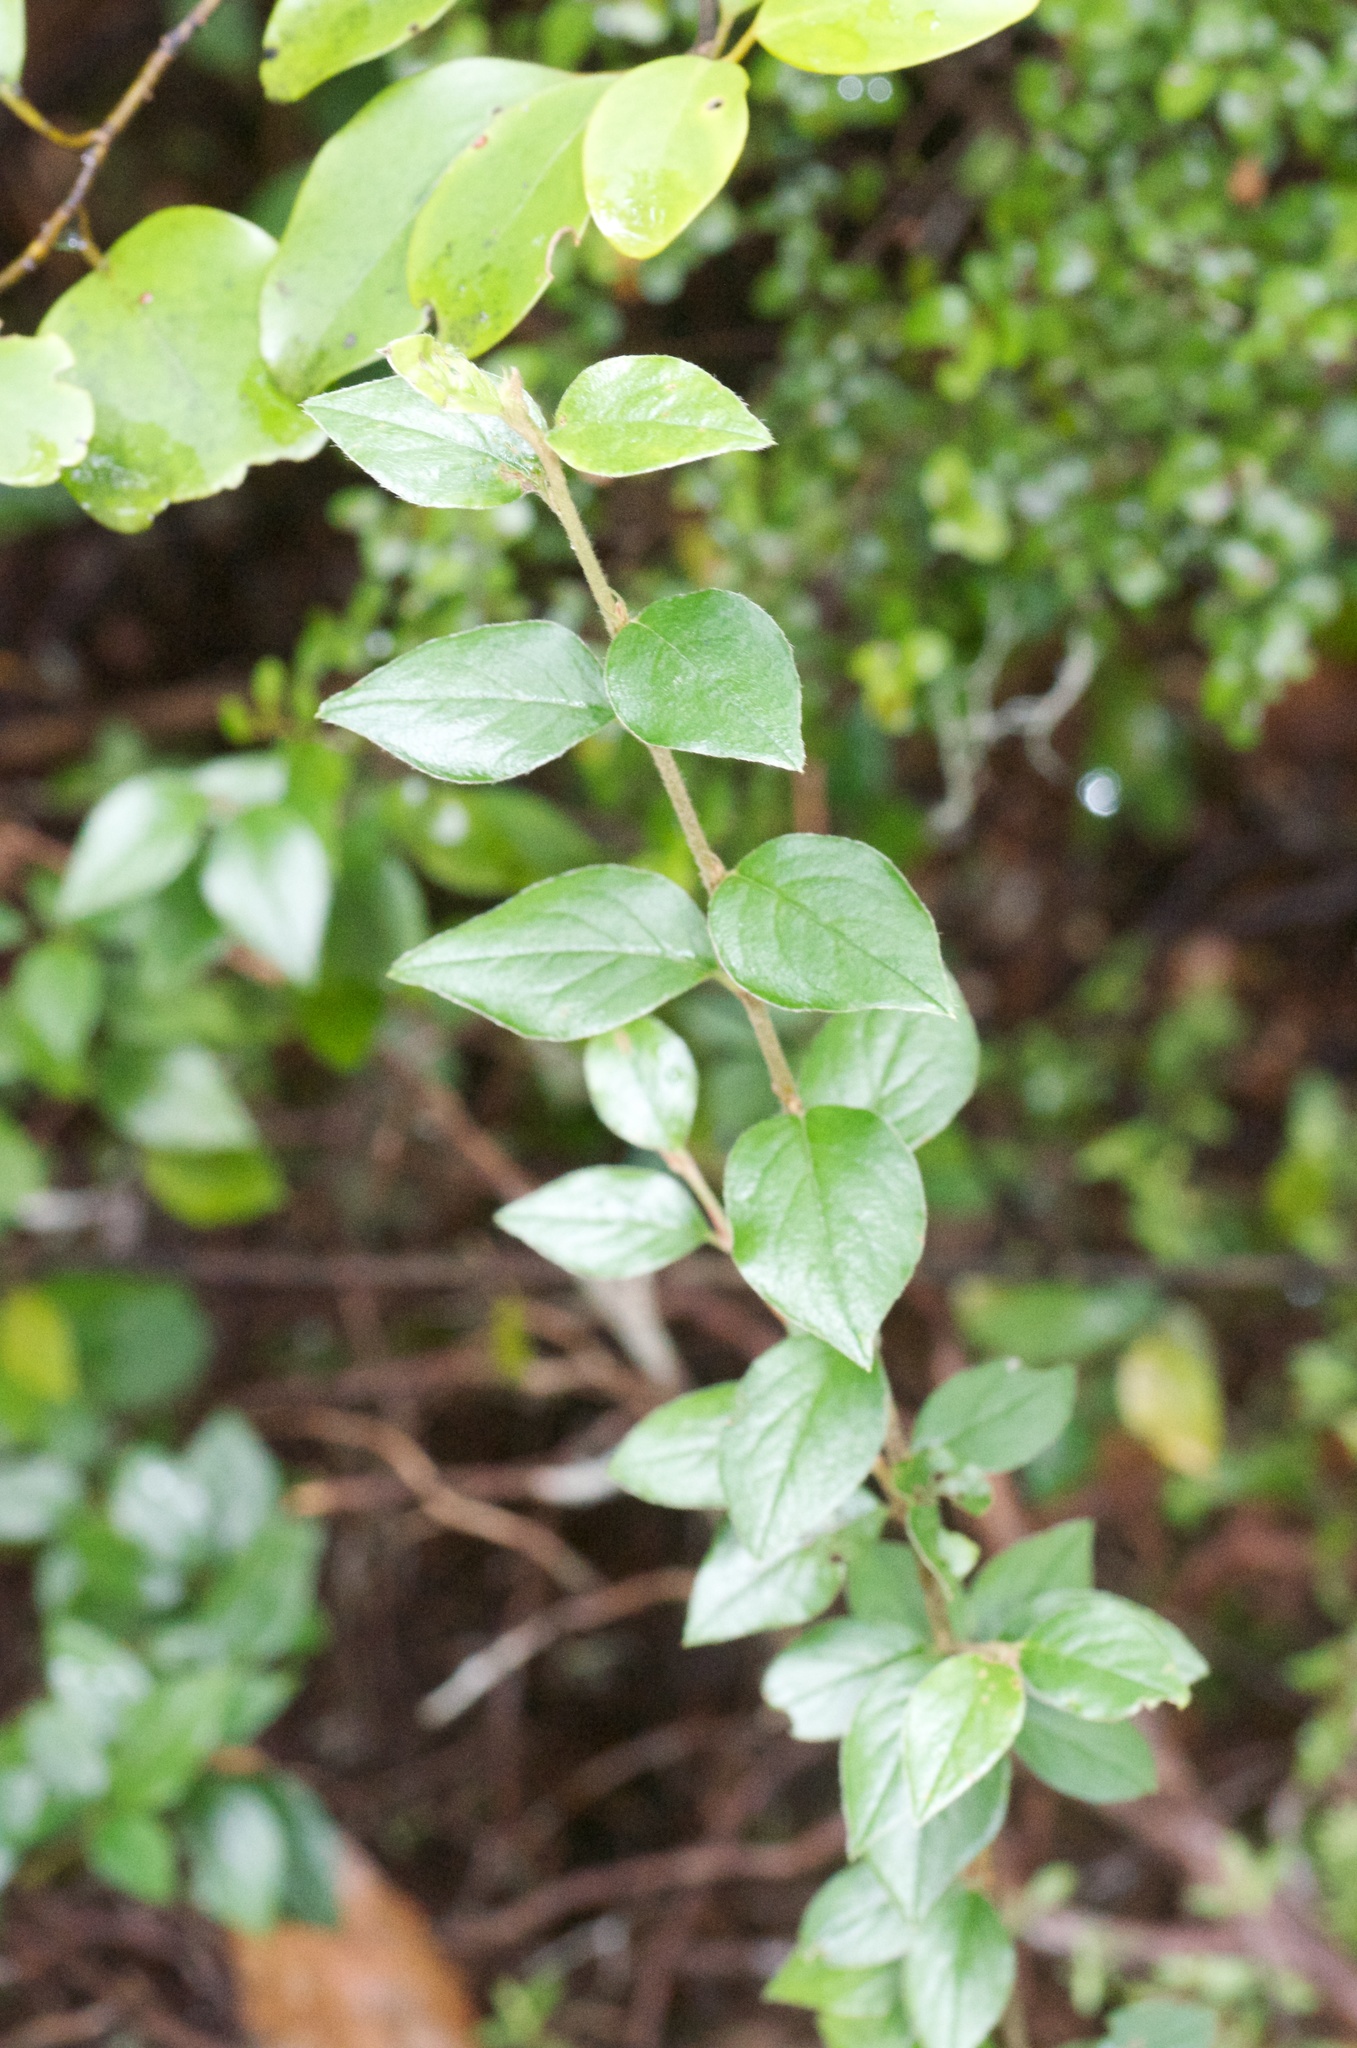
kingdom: Plantae
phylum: Tracheophyta
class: Magnoliopsida
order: Rosales
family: Rosaceae
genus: Cotoneaster
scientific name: Cotoneaster simonsii
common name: Himalayan cotoneaster
